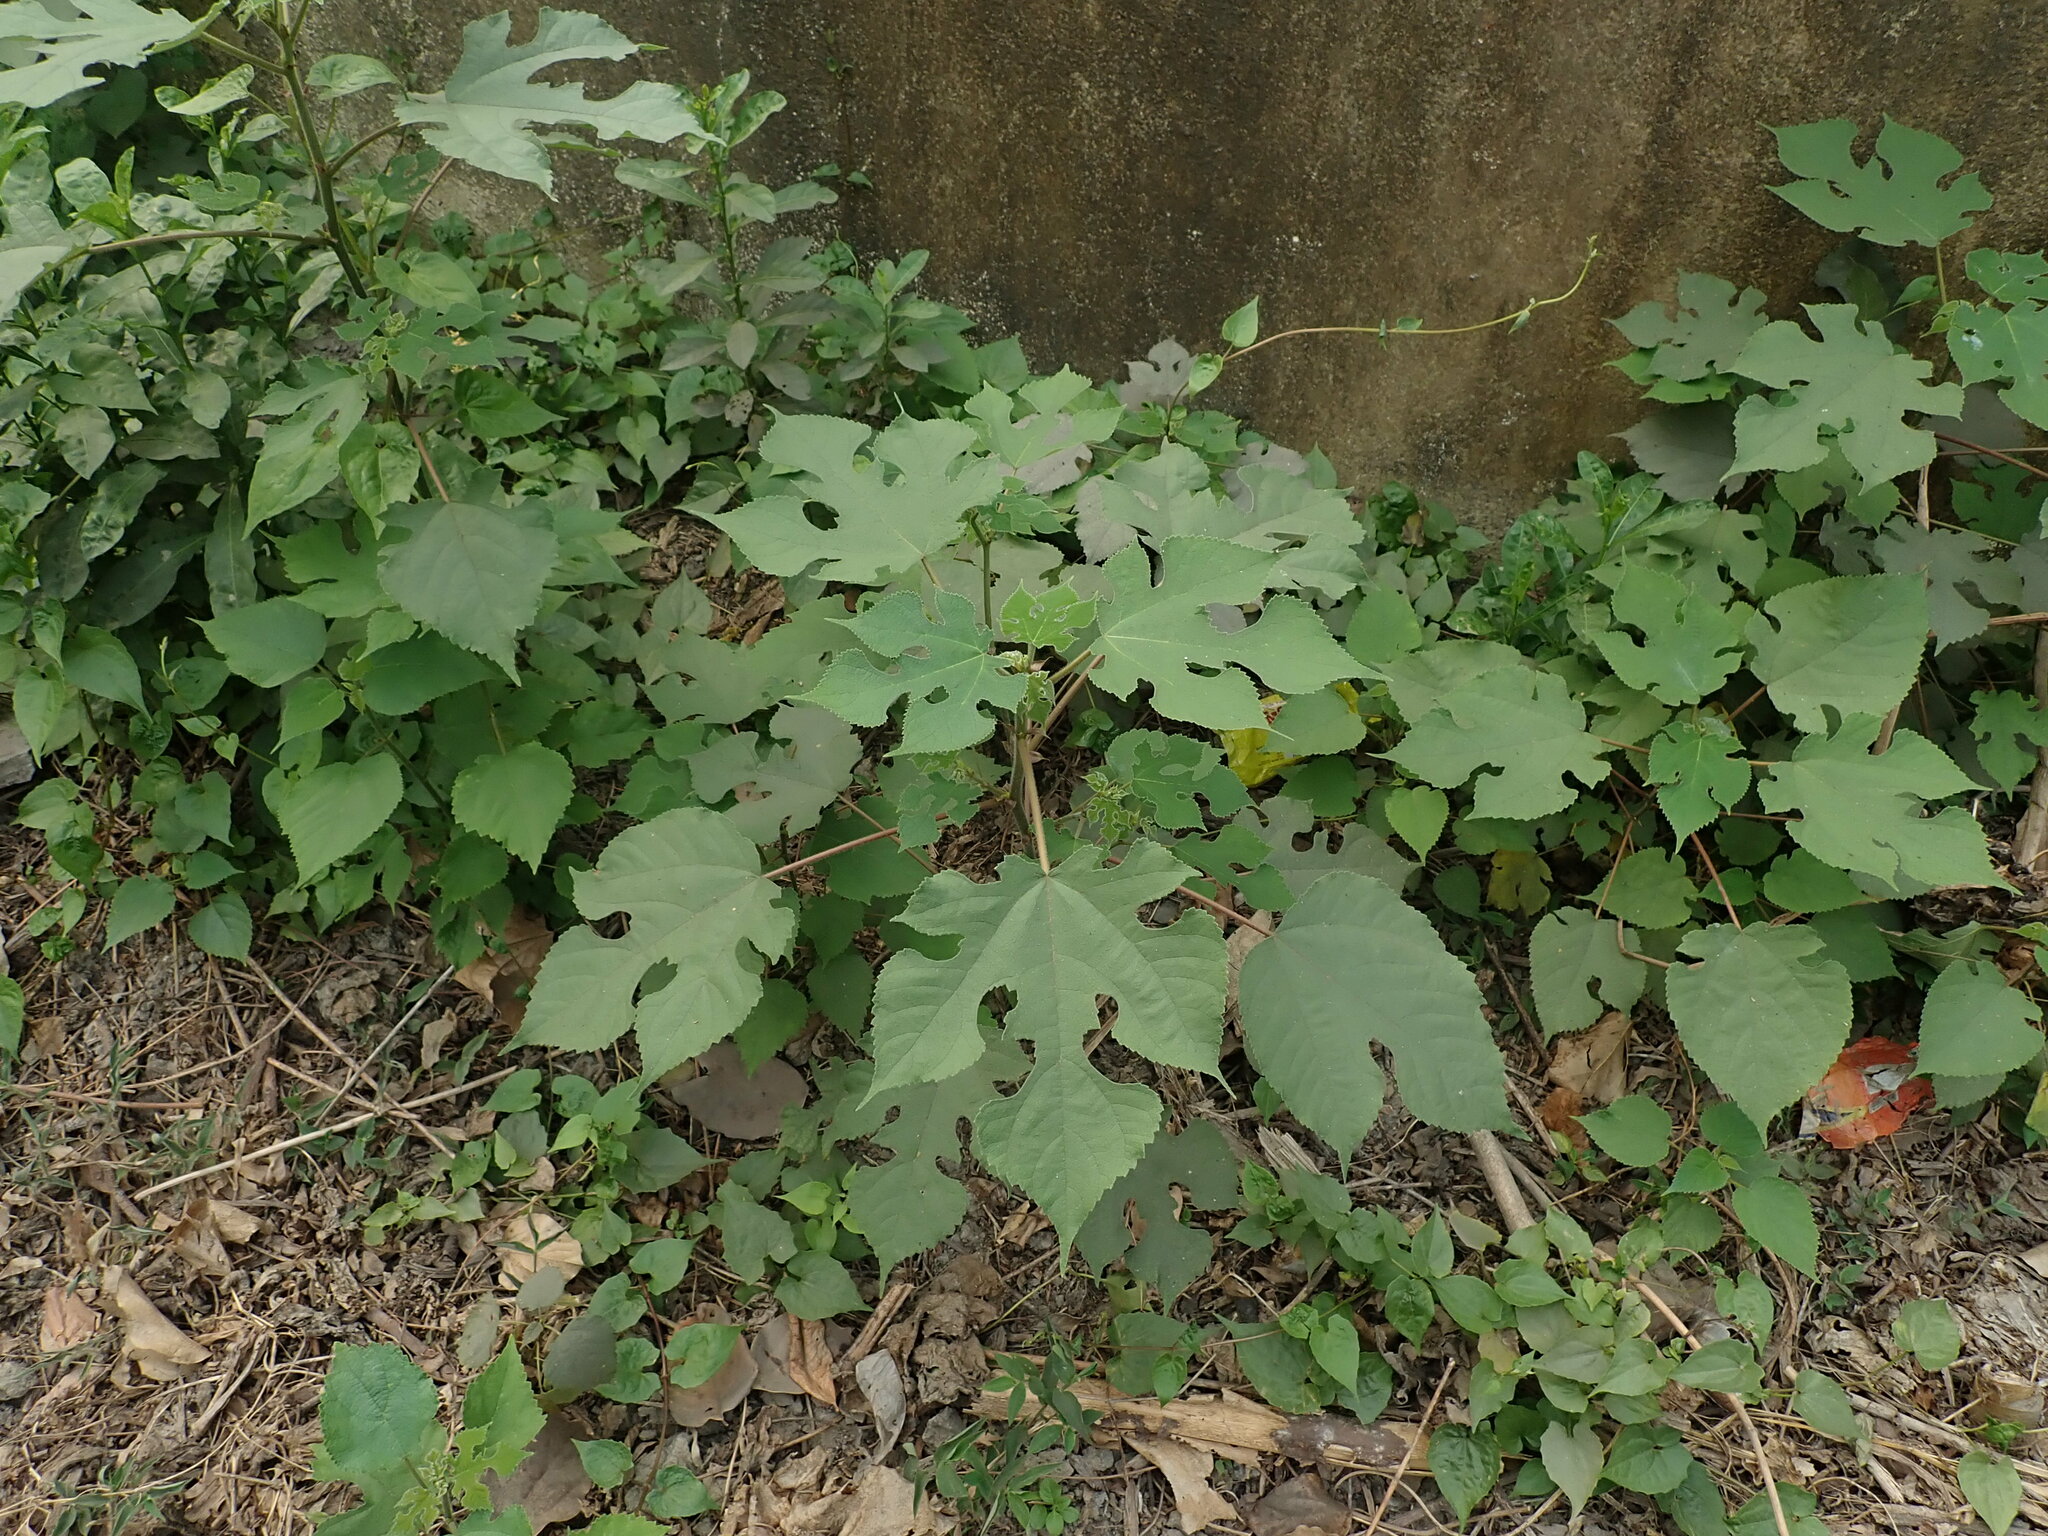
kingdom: Plantae
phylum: Tracheophyta
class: Magnoliopsida
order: Rosales
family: Moraceae
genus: Broussonetia
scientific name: Broussonetia papyrifera
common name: Paper mulberry
